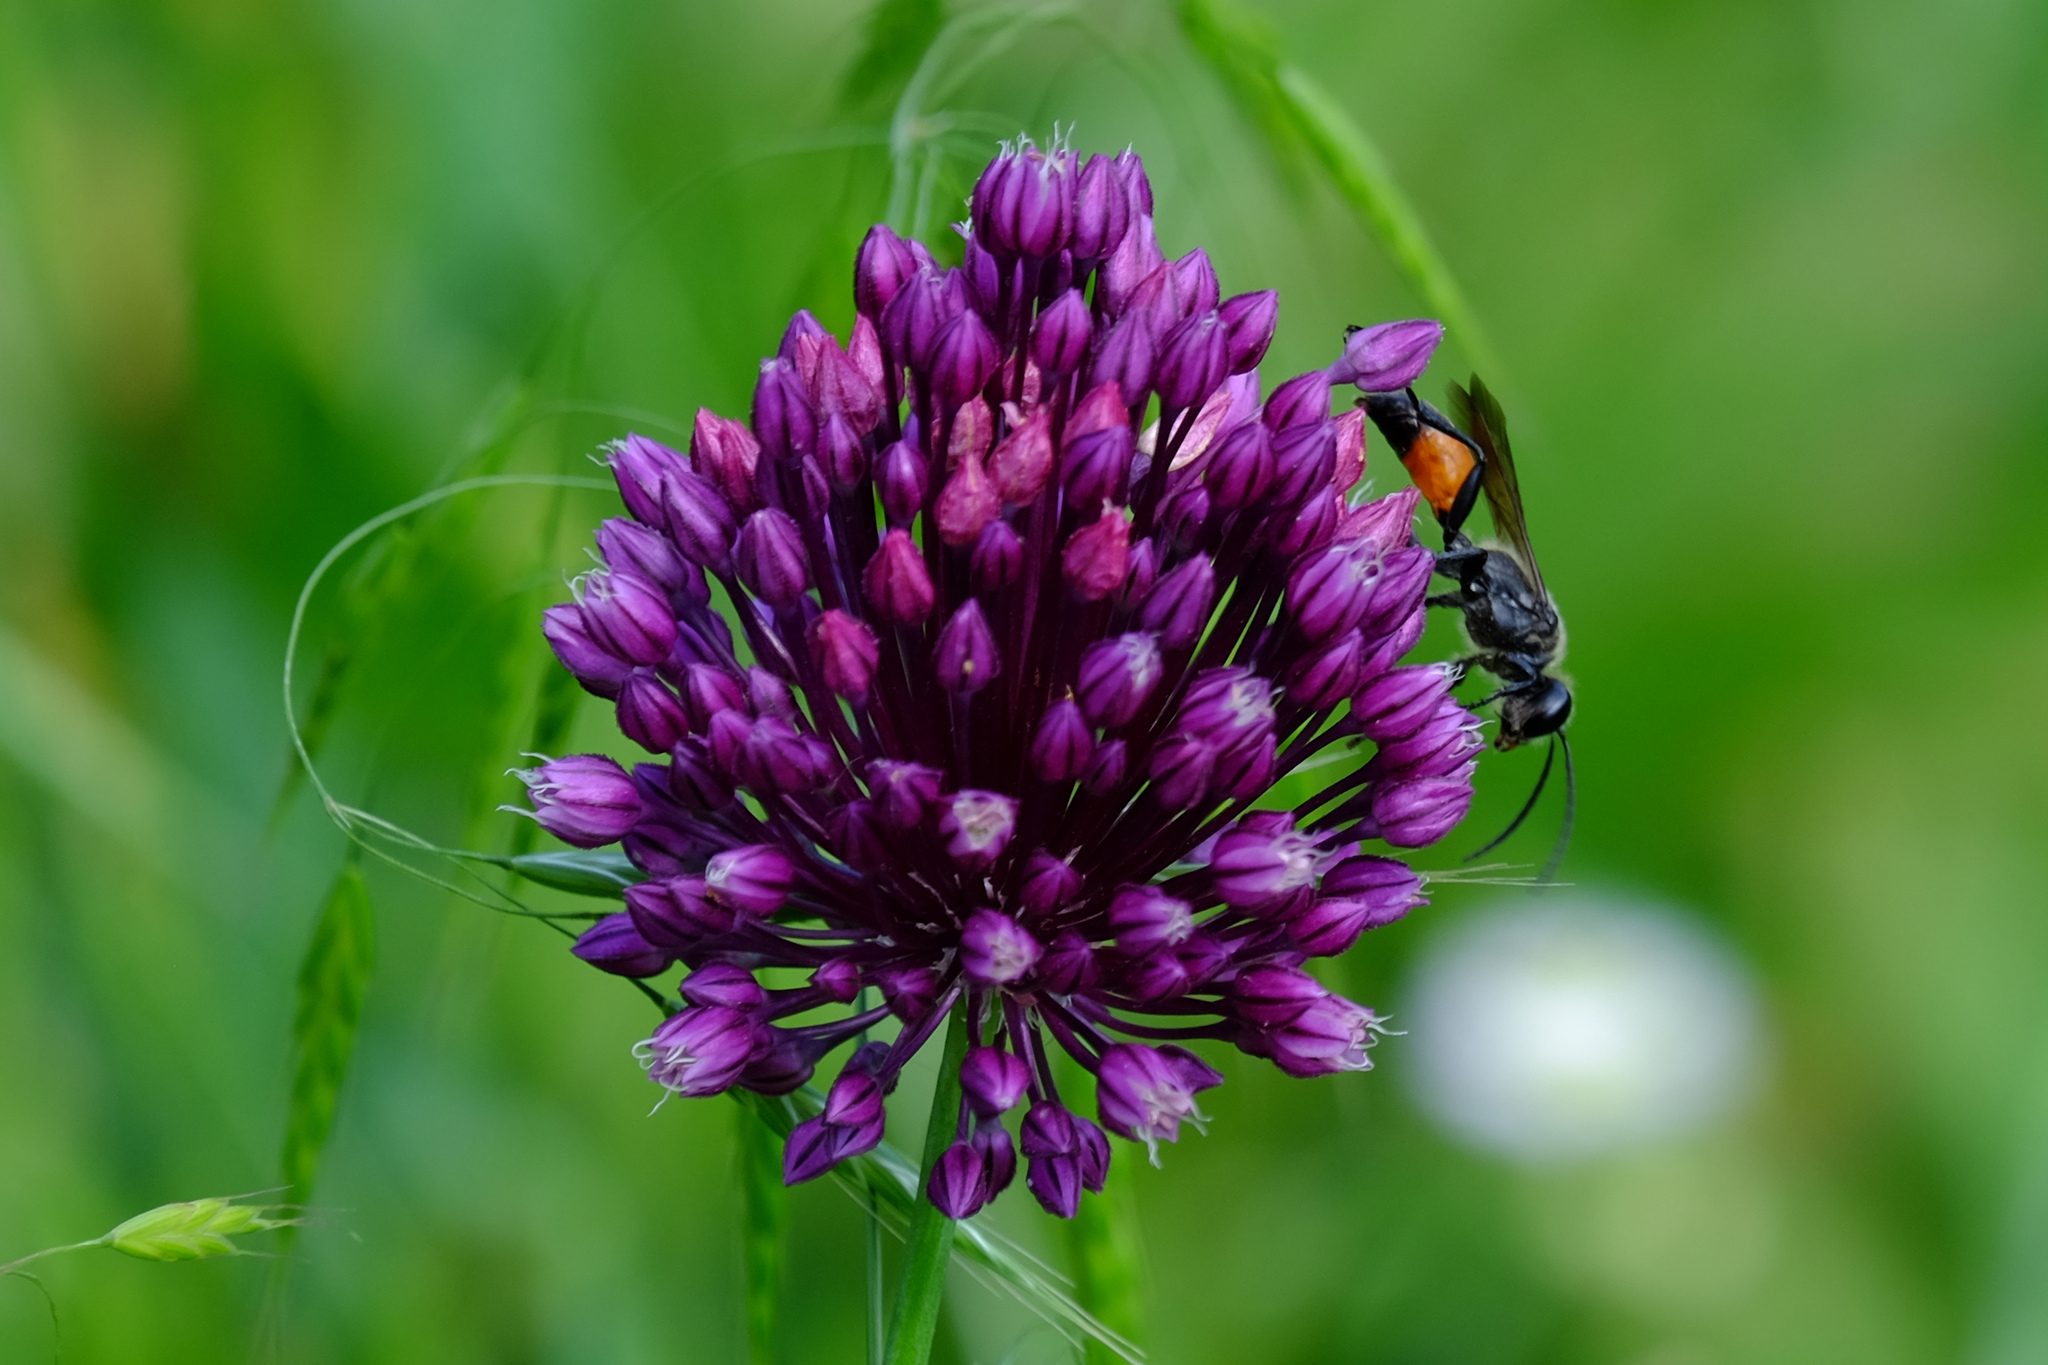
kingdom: Animalia
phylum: Arthropoda
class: Insecta
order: Hymenoptera
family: Sphecidae
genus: Sphex
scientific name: Sphex funerarius
